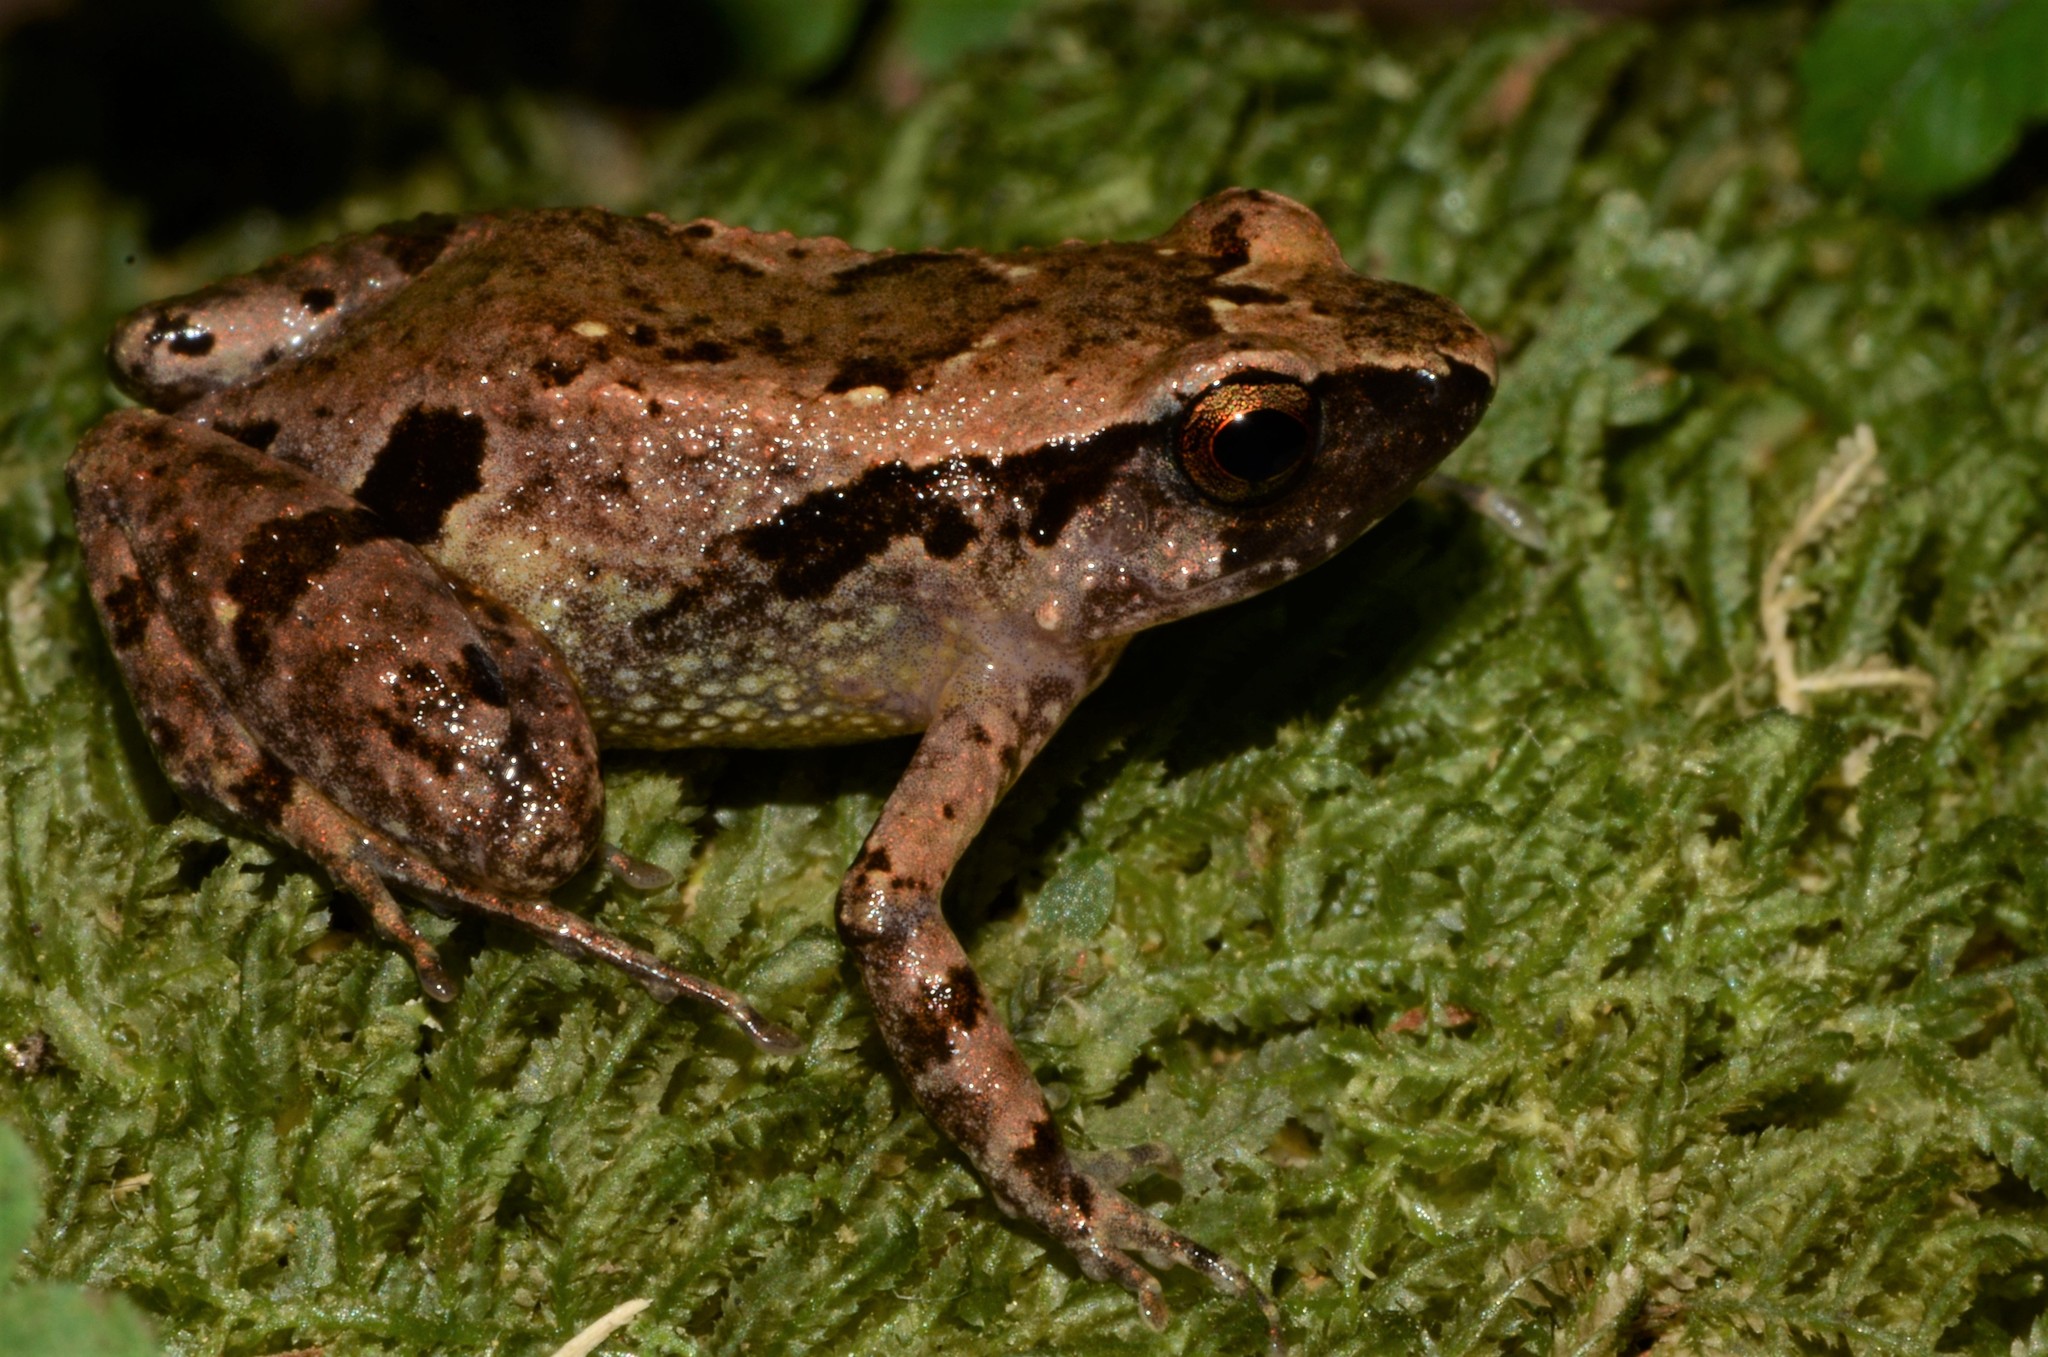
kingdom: Animalia
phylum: Chordata
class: Amphibia
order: Anura
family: Arthroleptidae
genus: Arthroleptis
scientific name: Arthroleptis sylvaticus
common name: Forest screeching frog
